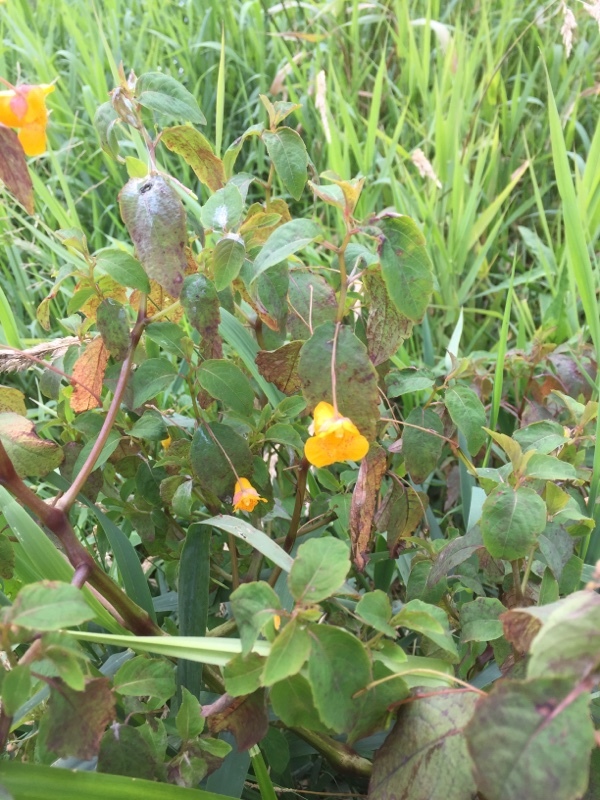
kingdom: Plantae
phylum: Tracheophyta
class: Magnoliopsida
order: Ericales
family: Balsaminaceae
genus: Impatiens
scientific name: Impatiens capensis
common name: Orange balsam
